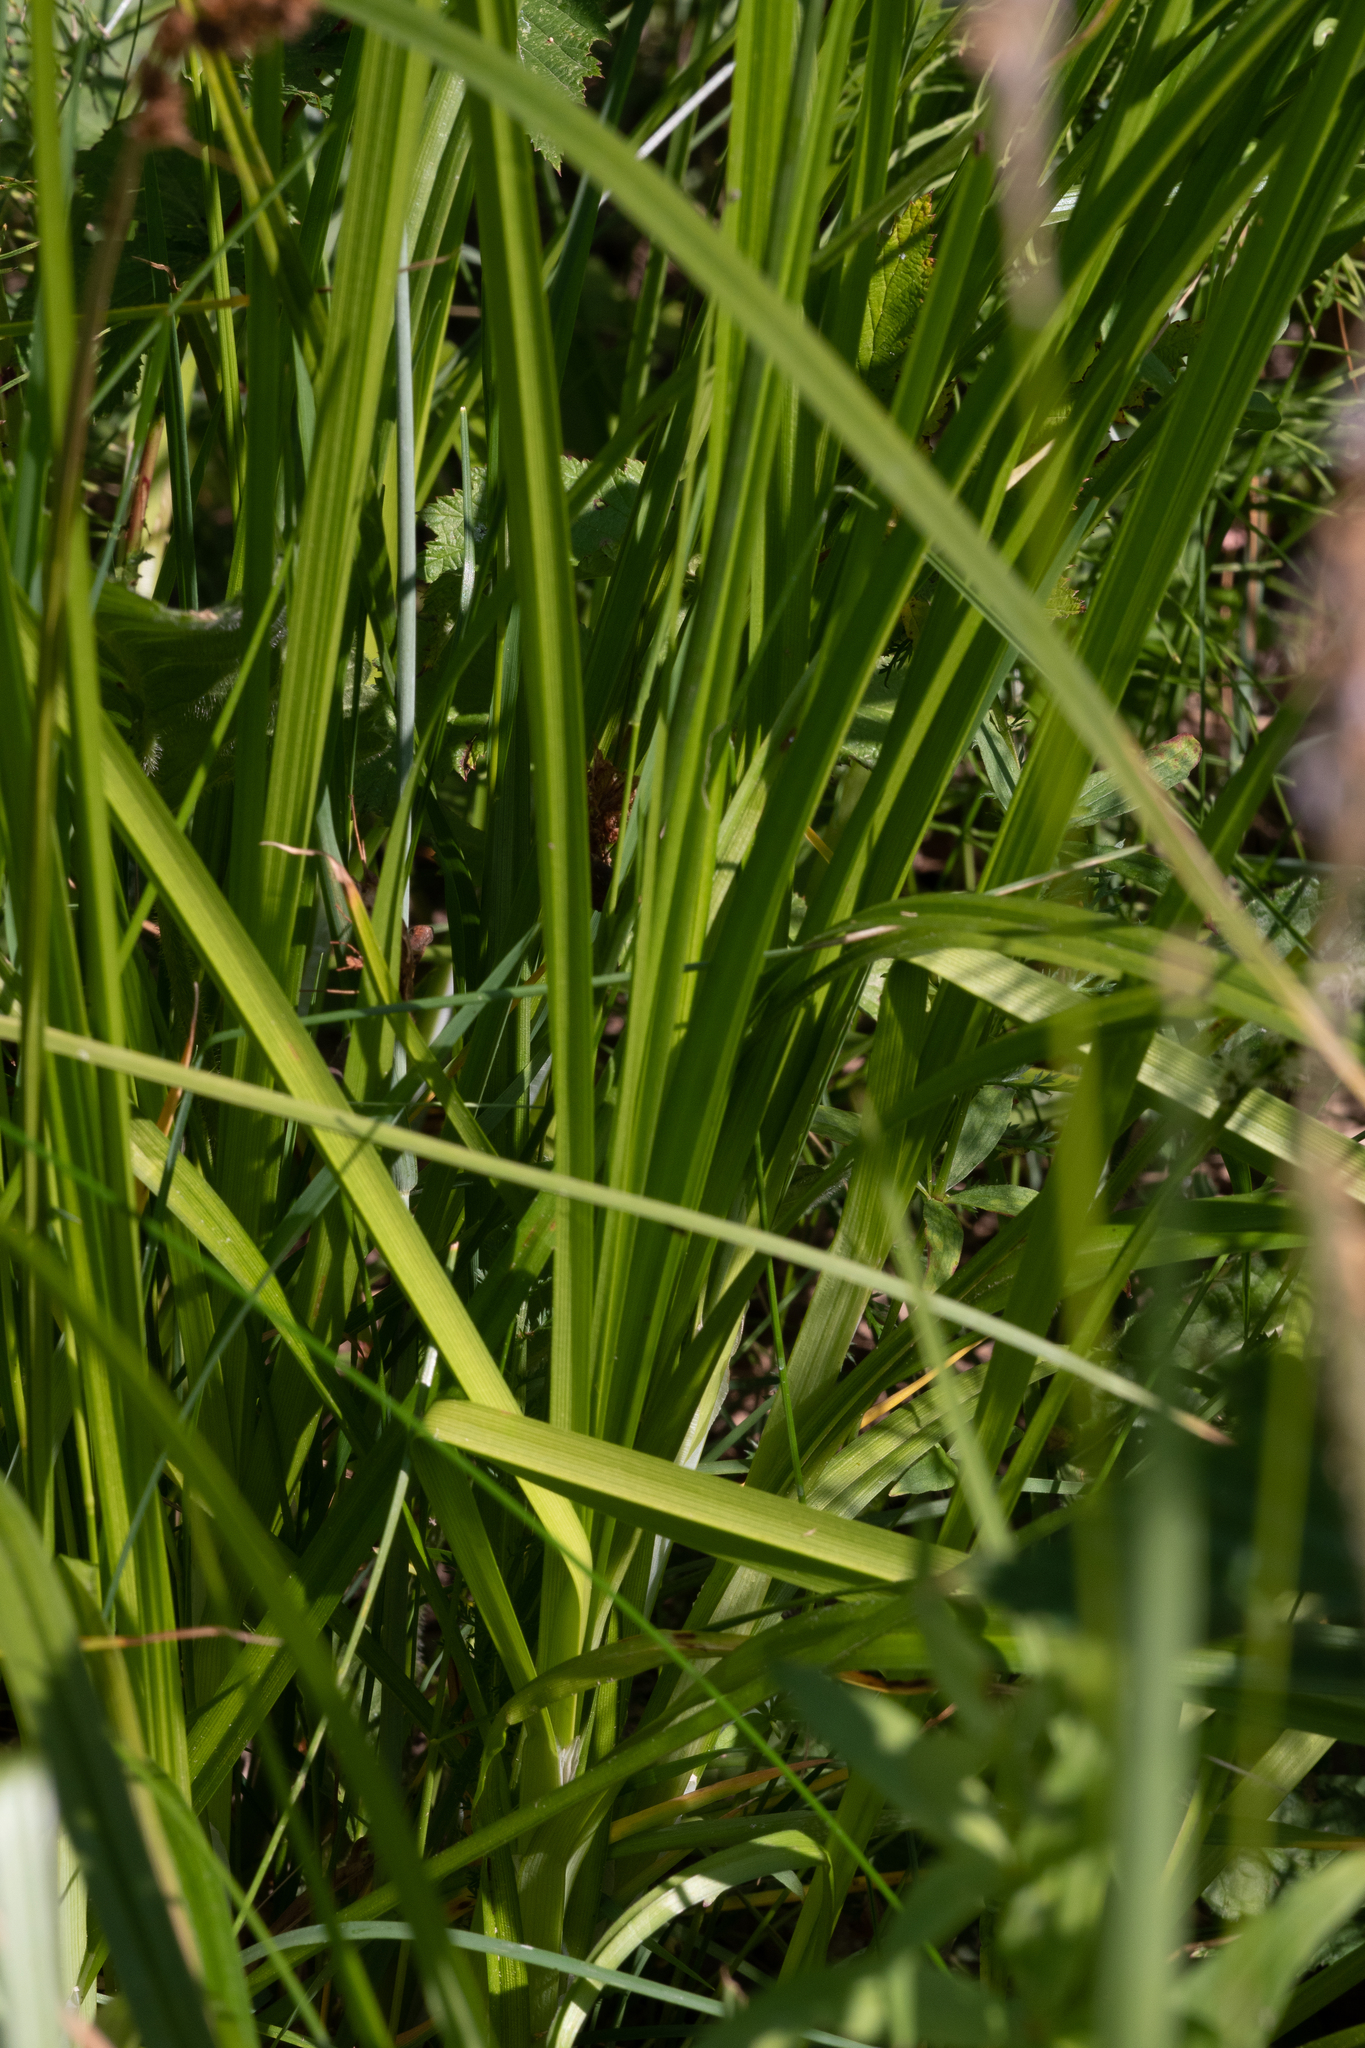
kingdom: Plantae
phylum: Tracheophyta
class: Liliopsida
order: Poales
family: Cyperaceae
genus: Carex
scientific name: Carex vulpina
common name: True fox-sedge
